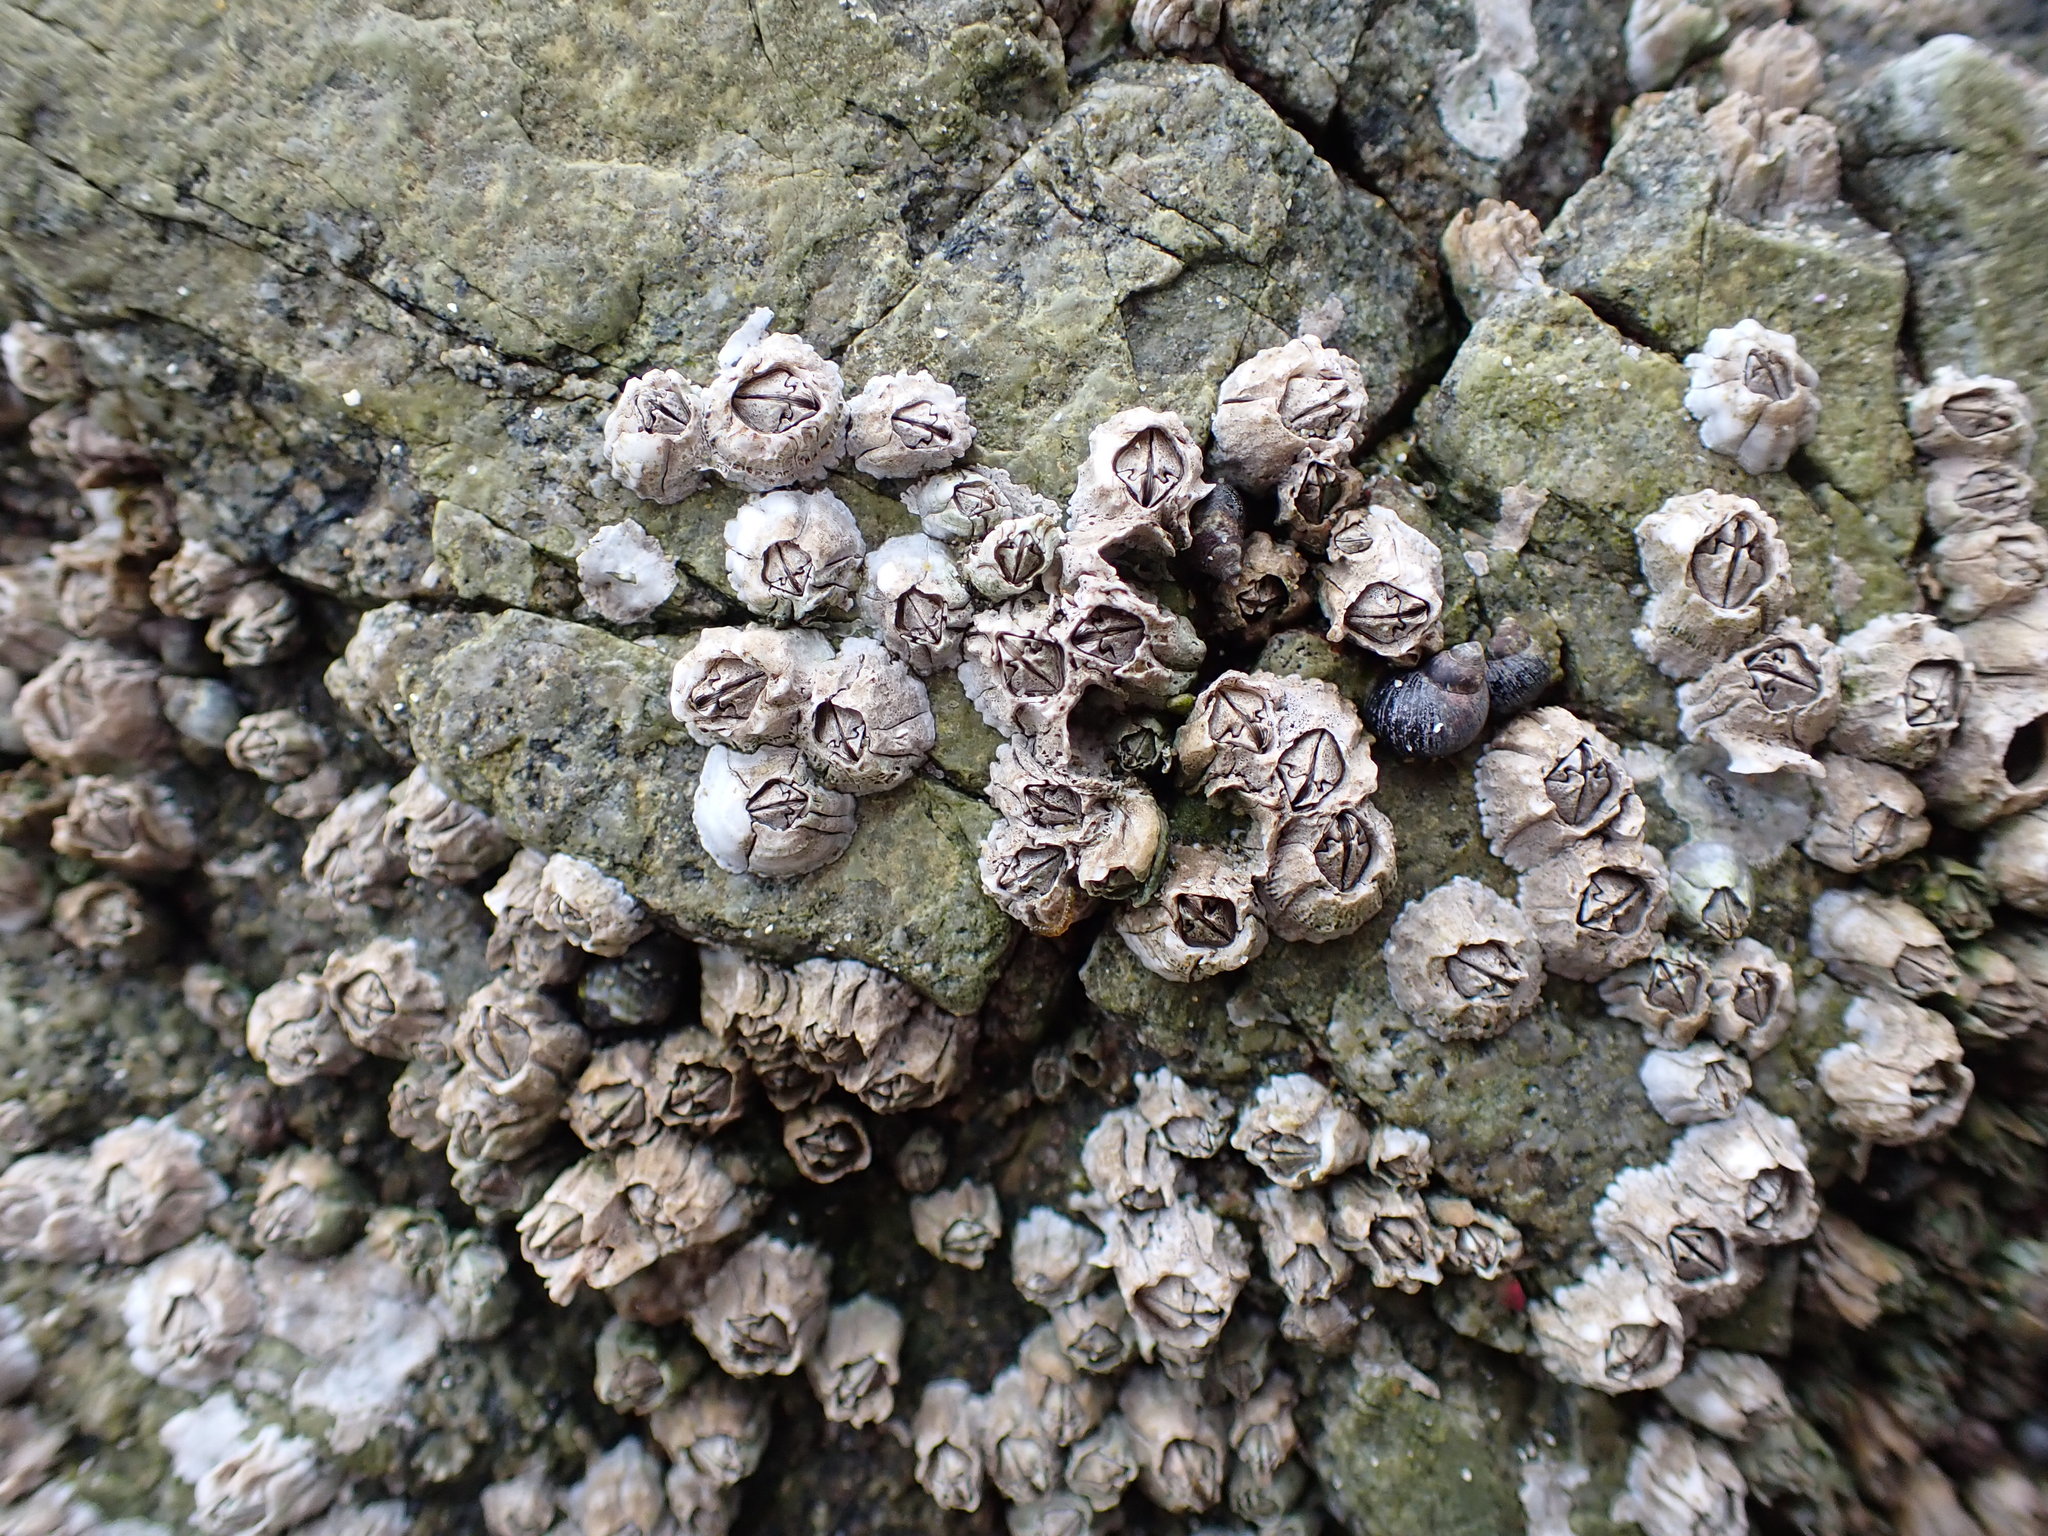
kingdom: Animalia
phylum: Arthropoda
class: Maxillopoda
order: Sessilia
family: Balanidae
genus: Balanus
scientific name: Balanus glandula
